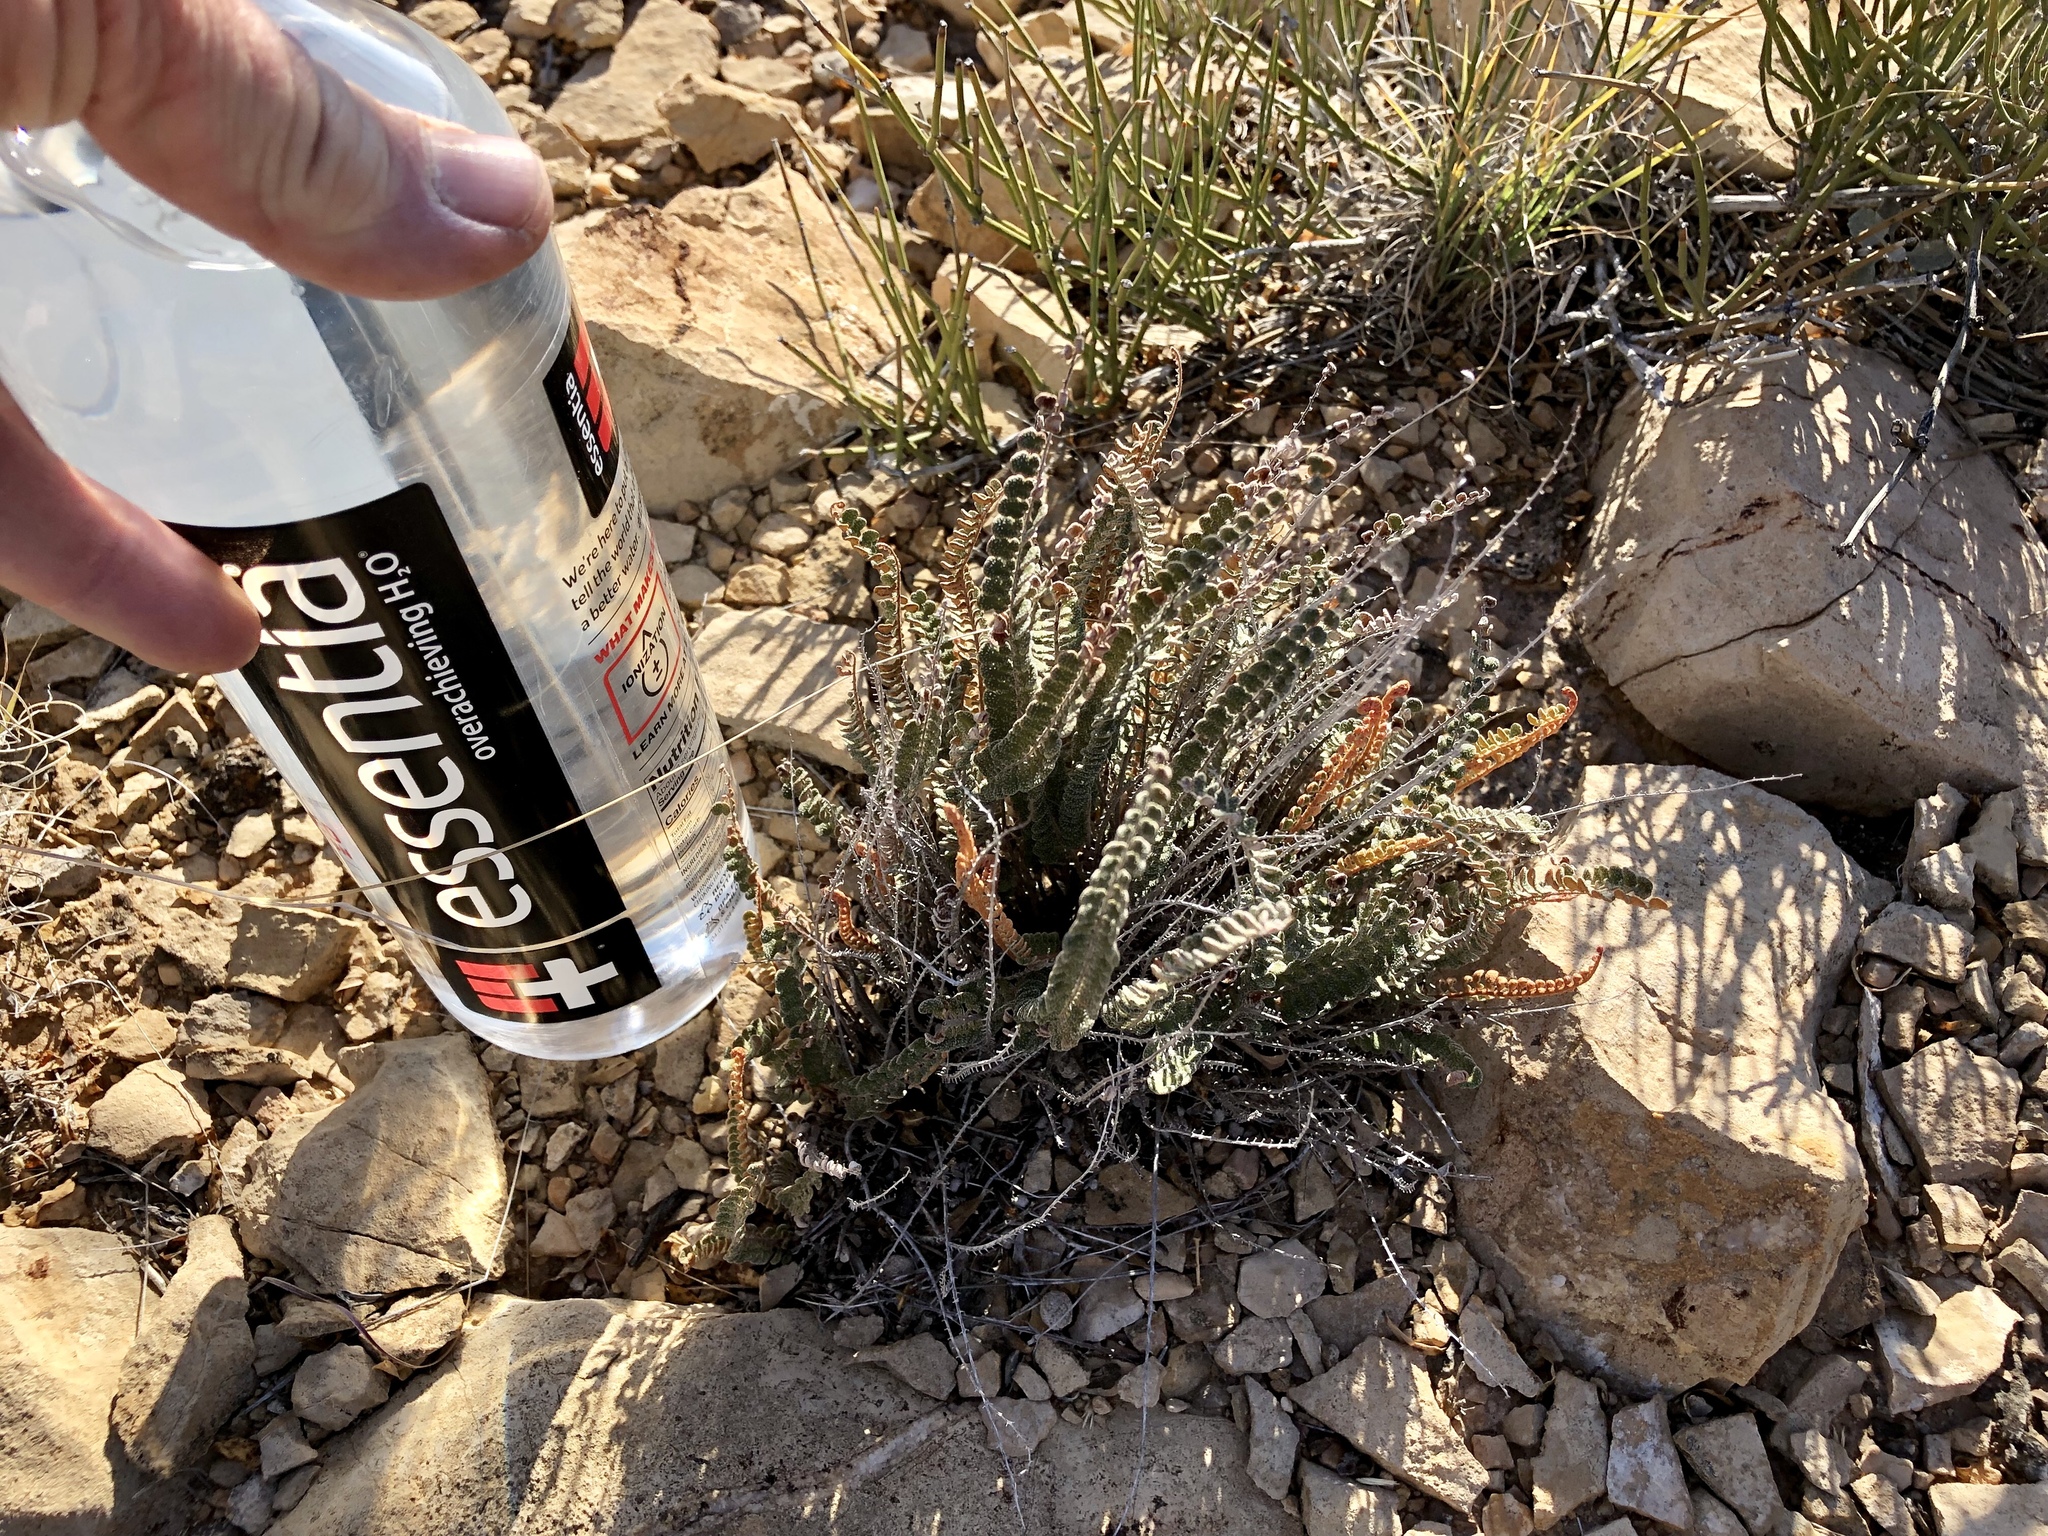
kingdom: Plantae
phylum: Tracheophyta
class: Polypodiopsida
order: Polypodiales
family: Pteridaceae
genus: Astrolepis
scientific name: Astrolepis cochisensis
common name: Scaly cloak fern
